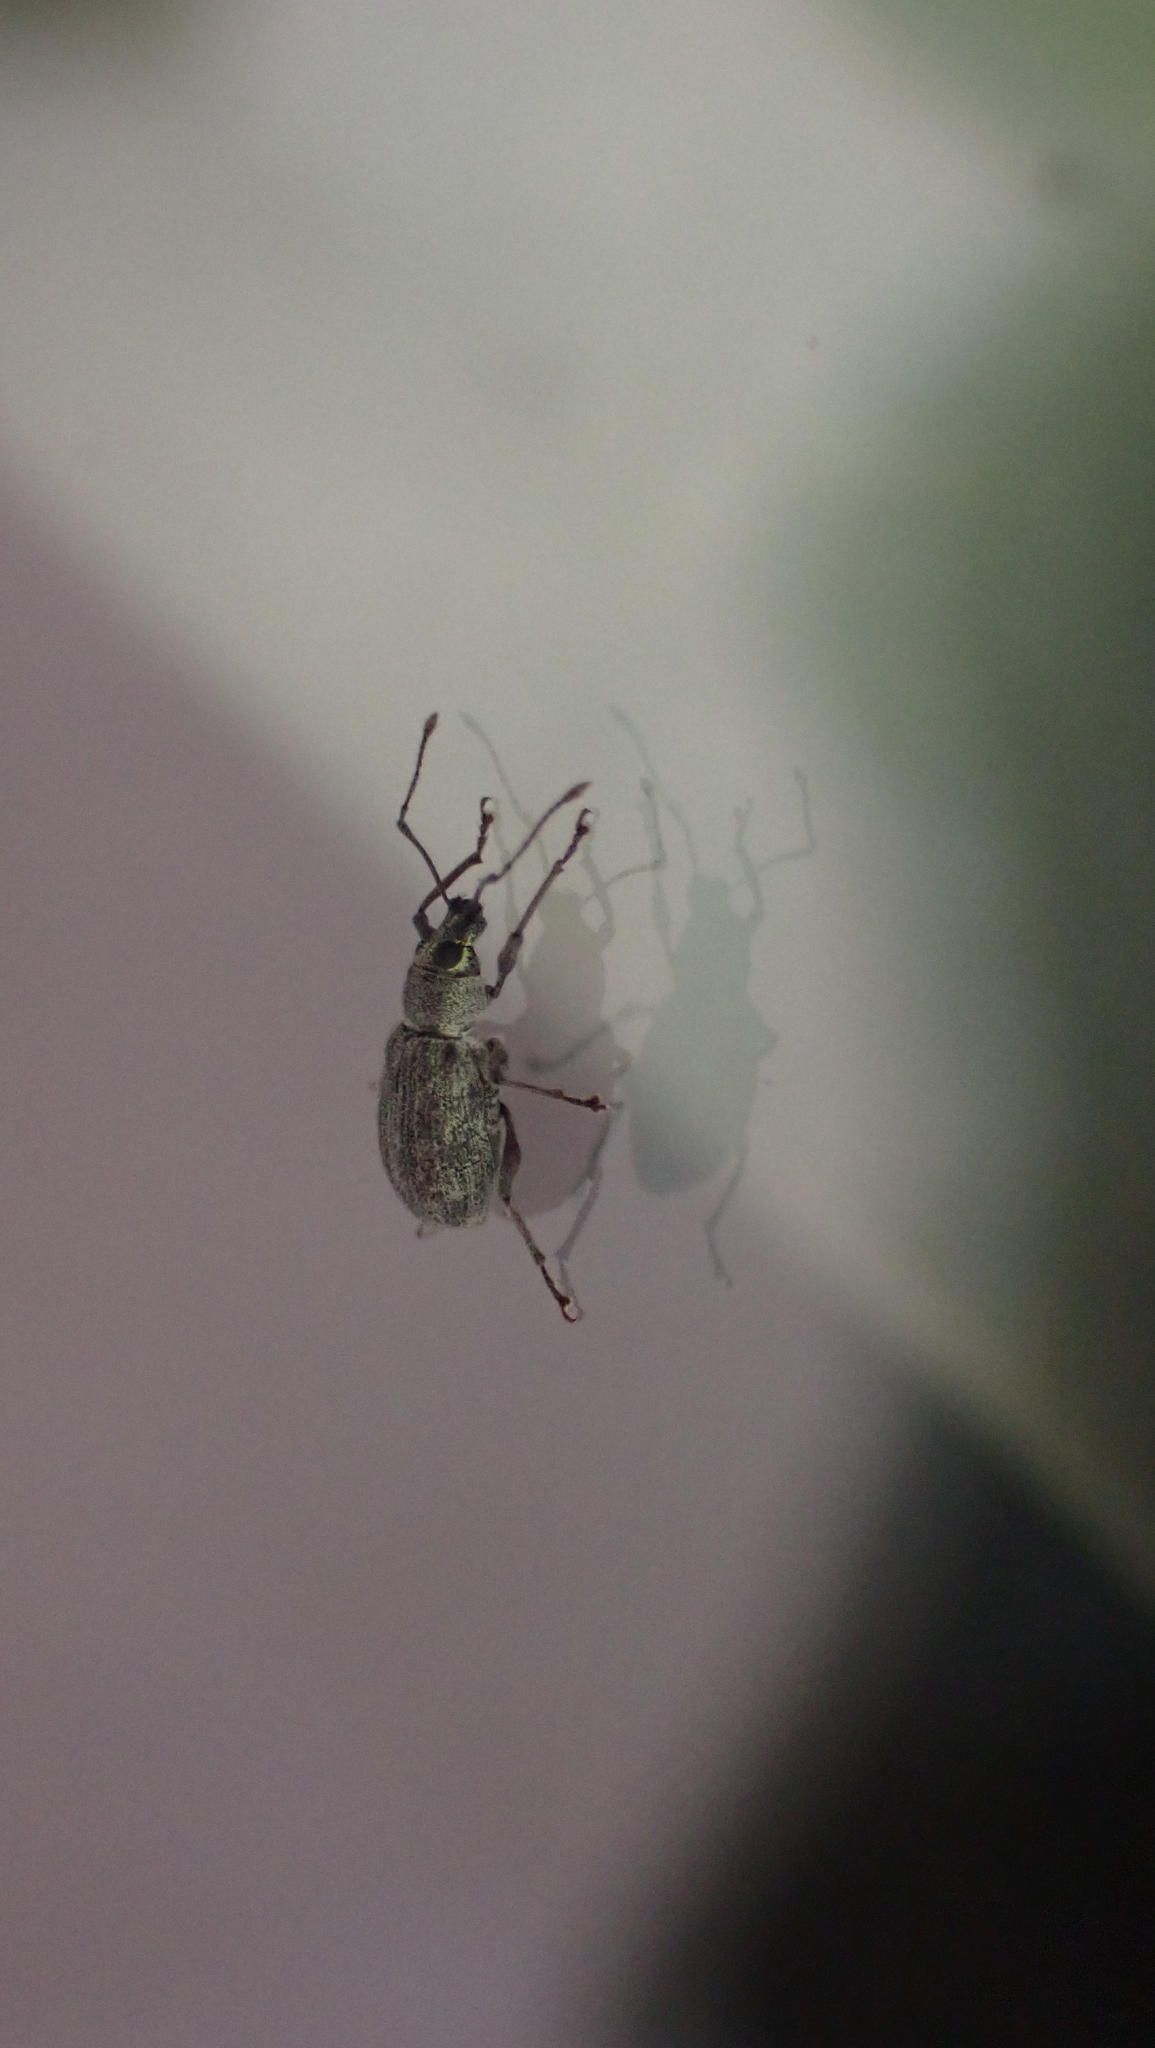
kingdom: Animalia
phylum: Arthropoda
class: Insecta
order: Coleoptera
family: Curculionidae
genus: Cyrtepistomus
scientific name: Cyrtepistomus castaneus
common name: Weevil
